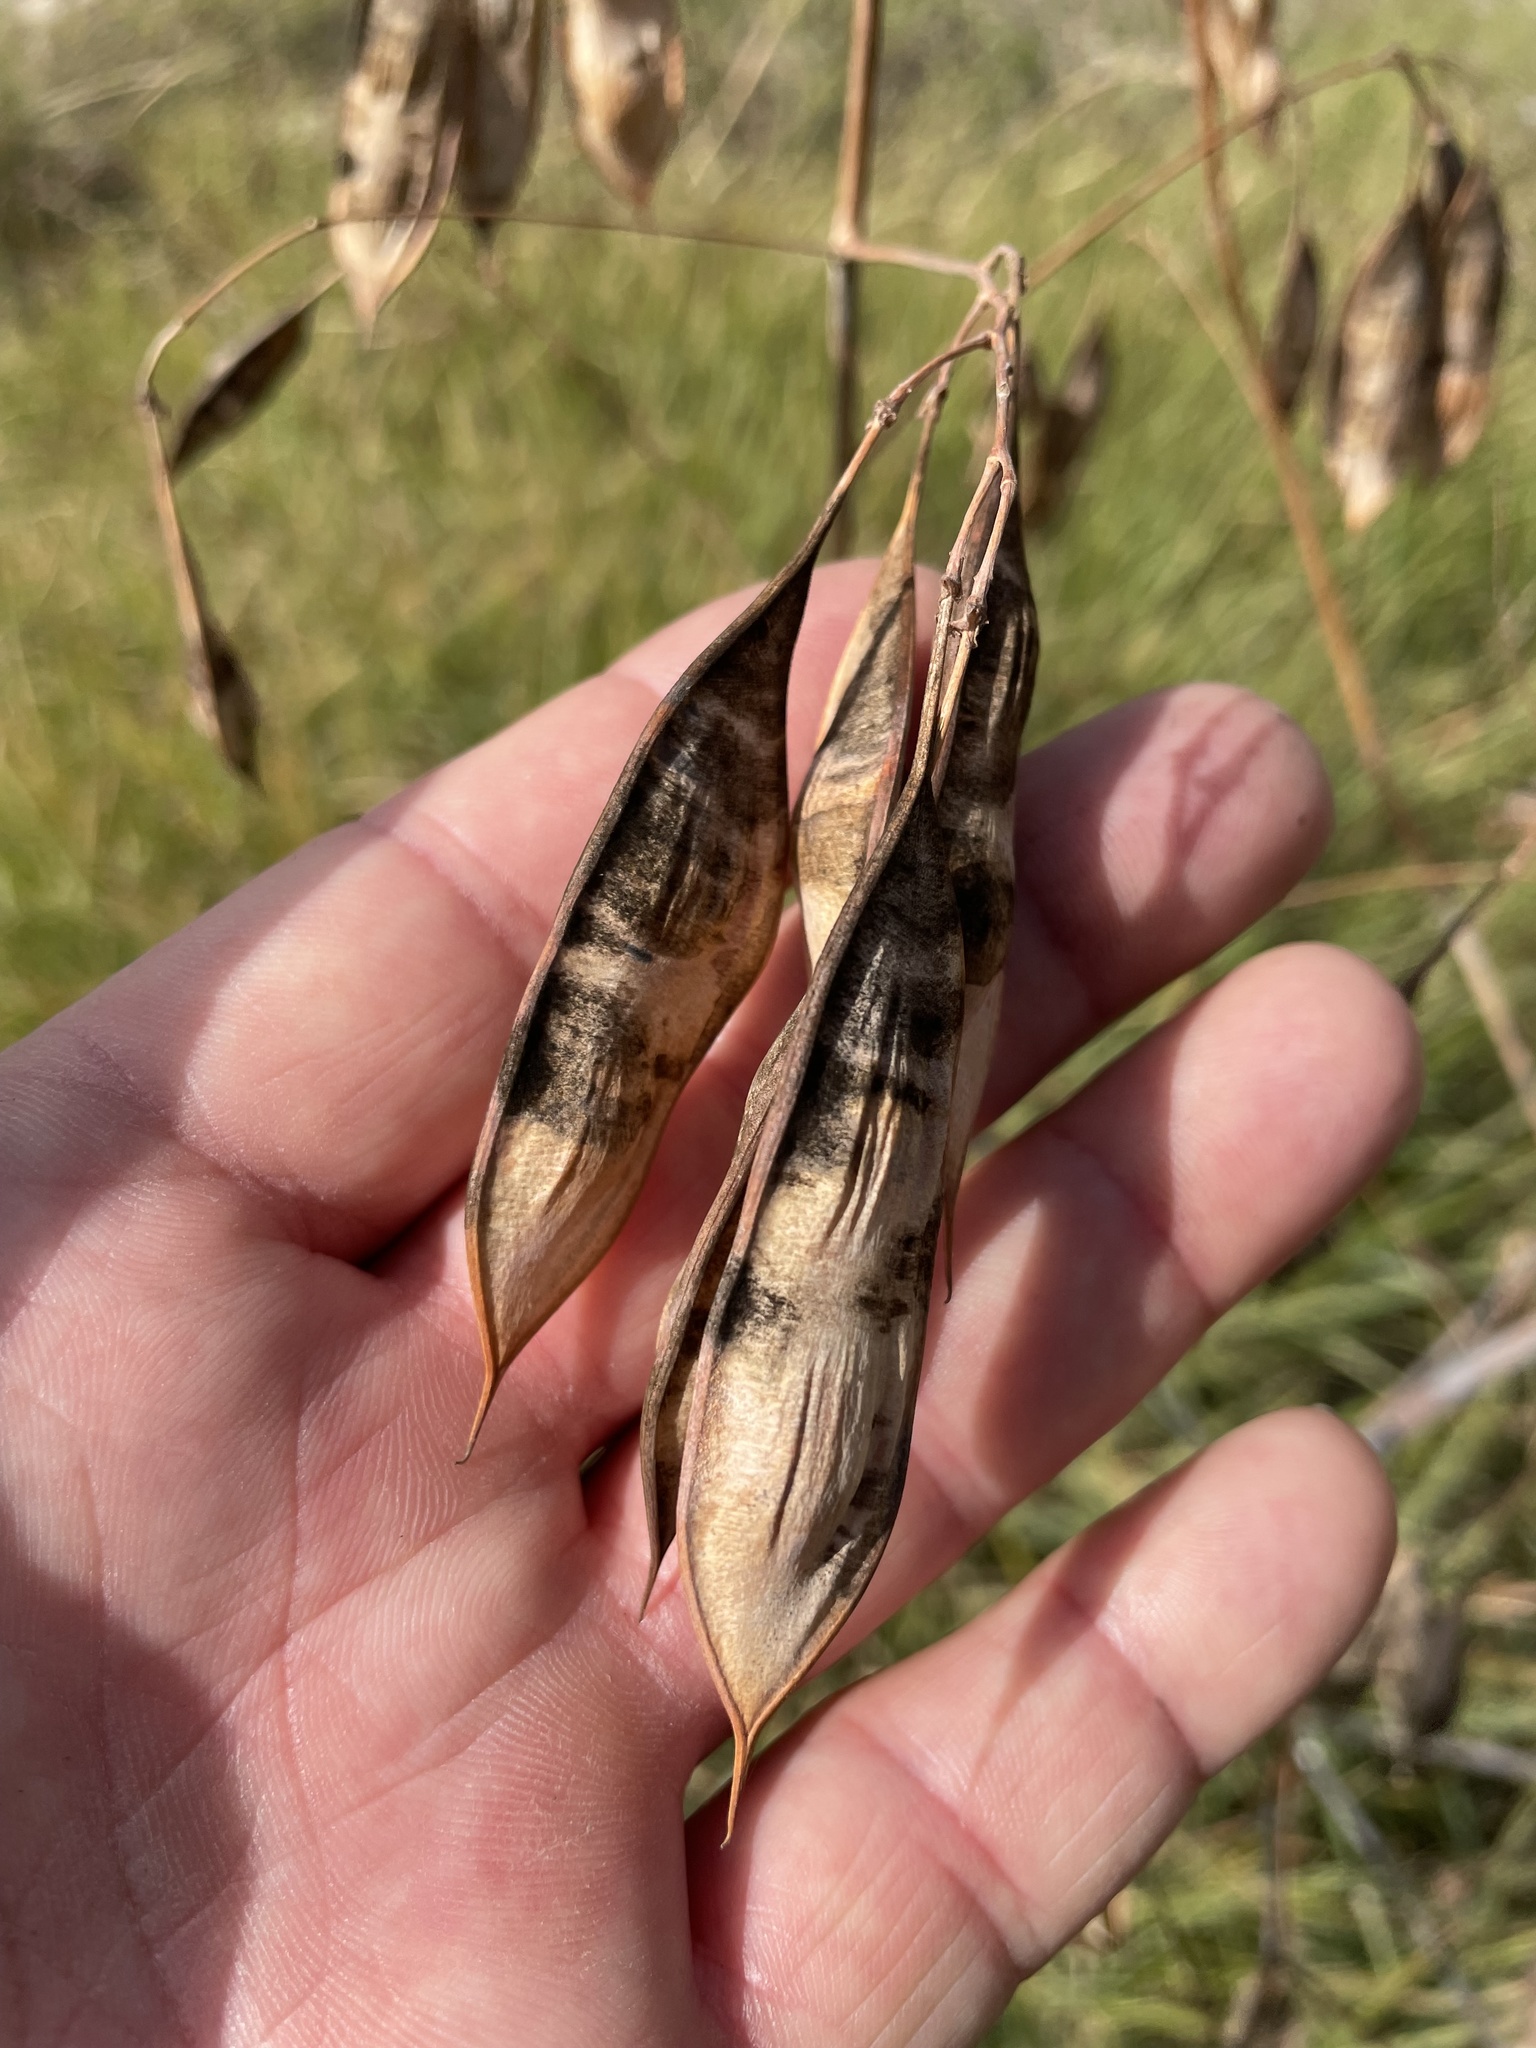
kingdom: Plantae
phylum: Tracheophyta
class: Magnoliopsida
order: Fabales
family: Fabaceae
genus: Sesbania
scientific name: Sesbania vesicaria
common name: Bagpod
